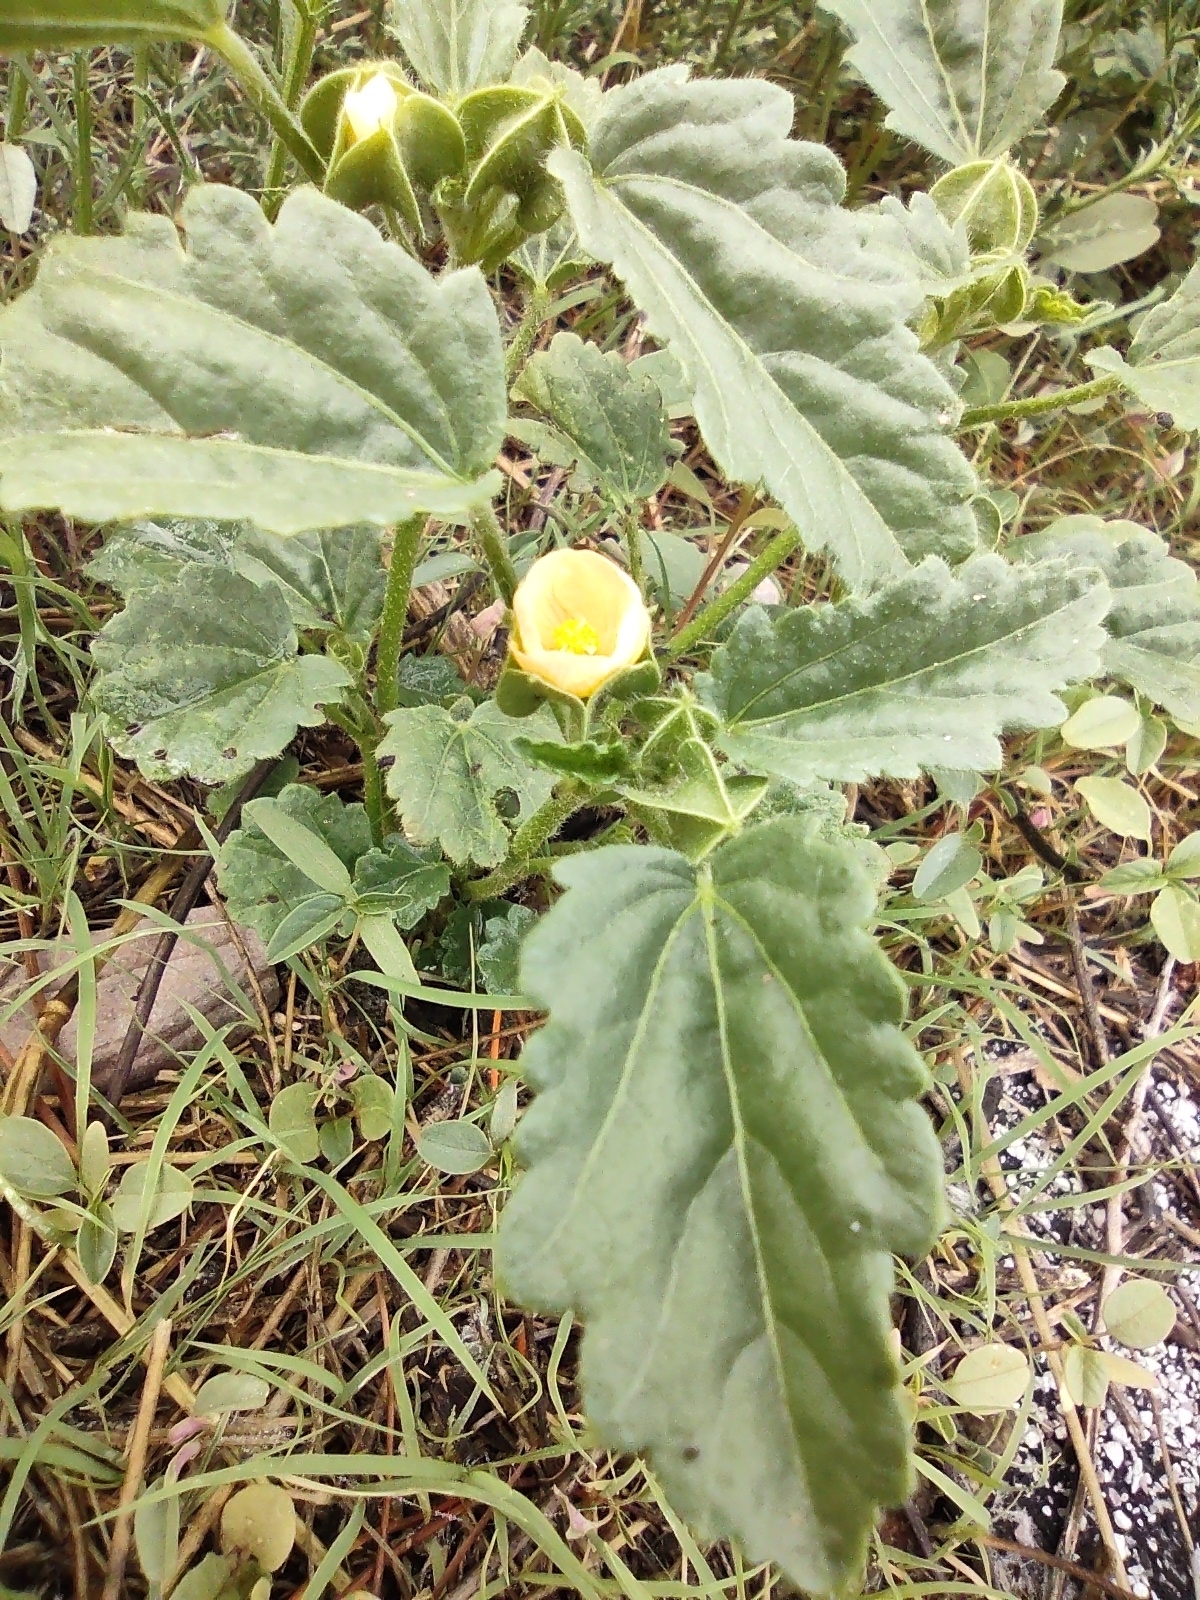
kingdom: Plantae
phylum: Tracheophyta
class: Magnoliopsida
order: Malvales
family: Malvaceae
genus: Rhynchosida
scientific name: Rhynchosida physocalyx
